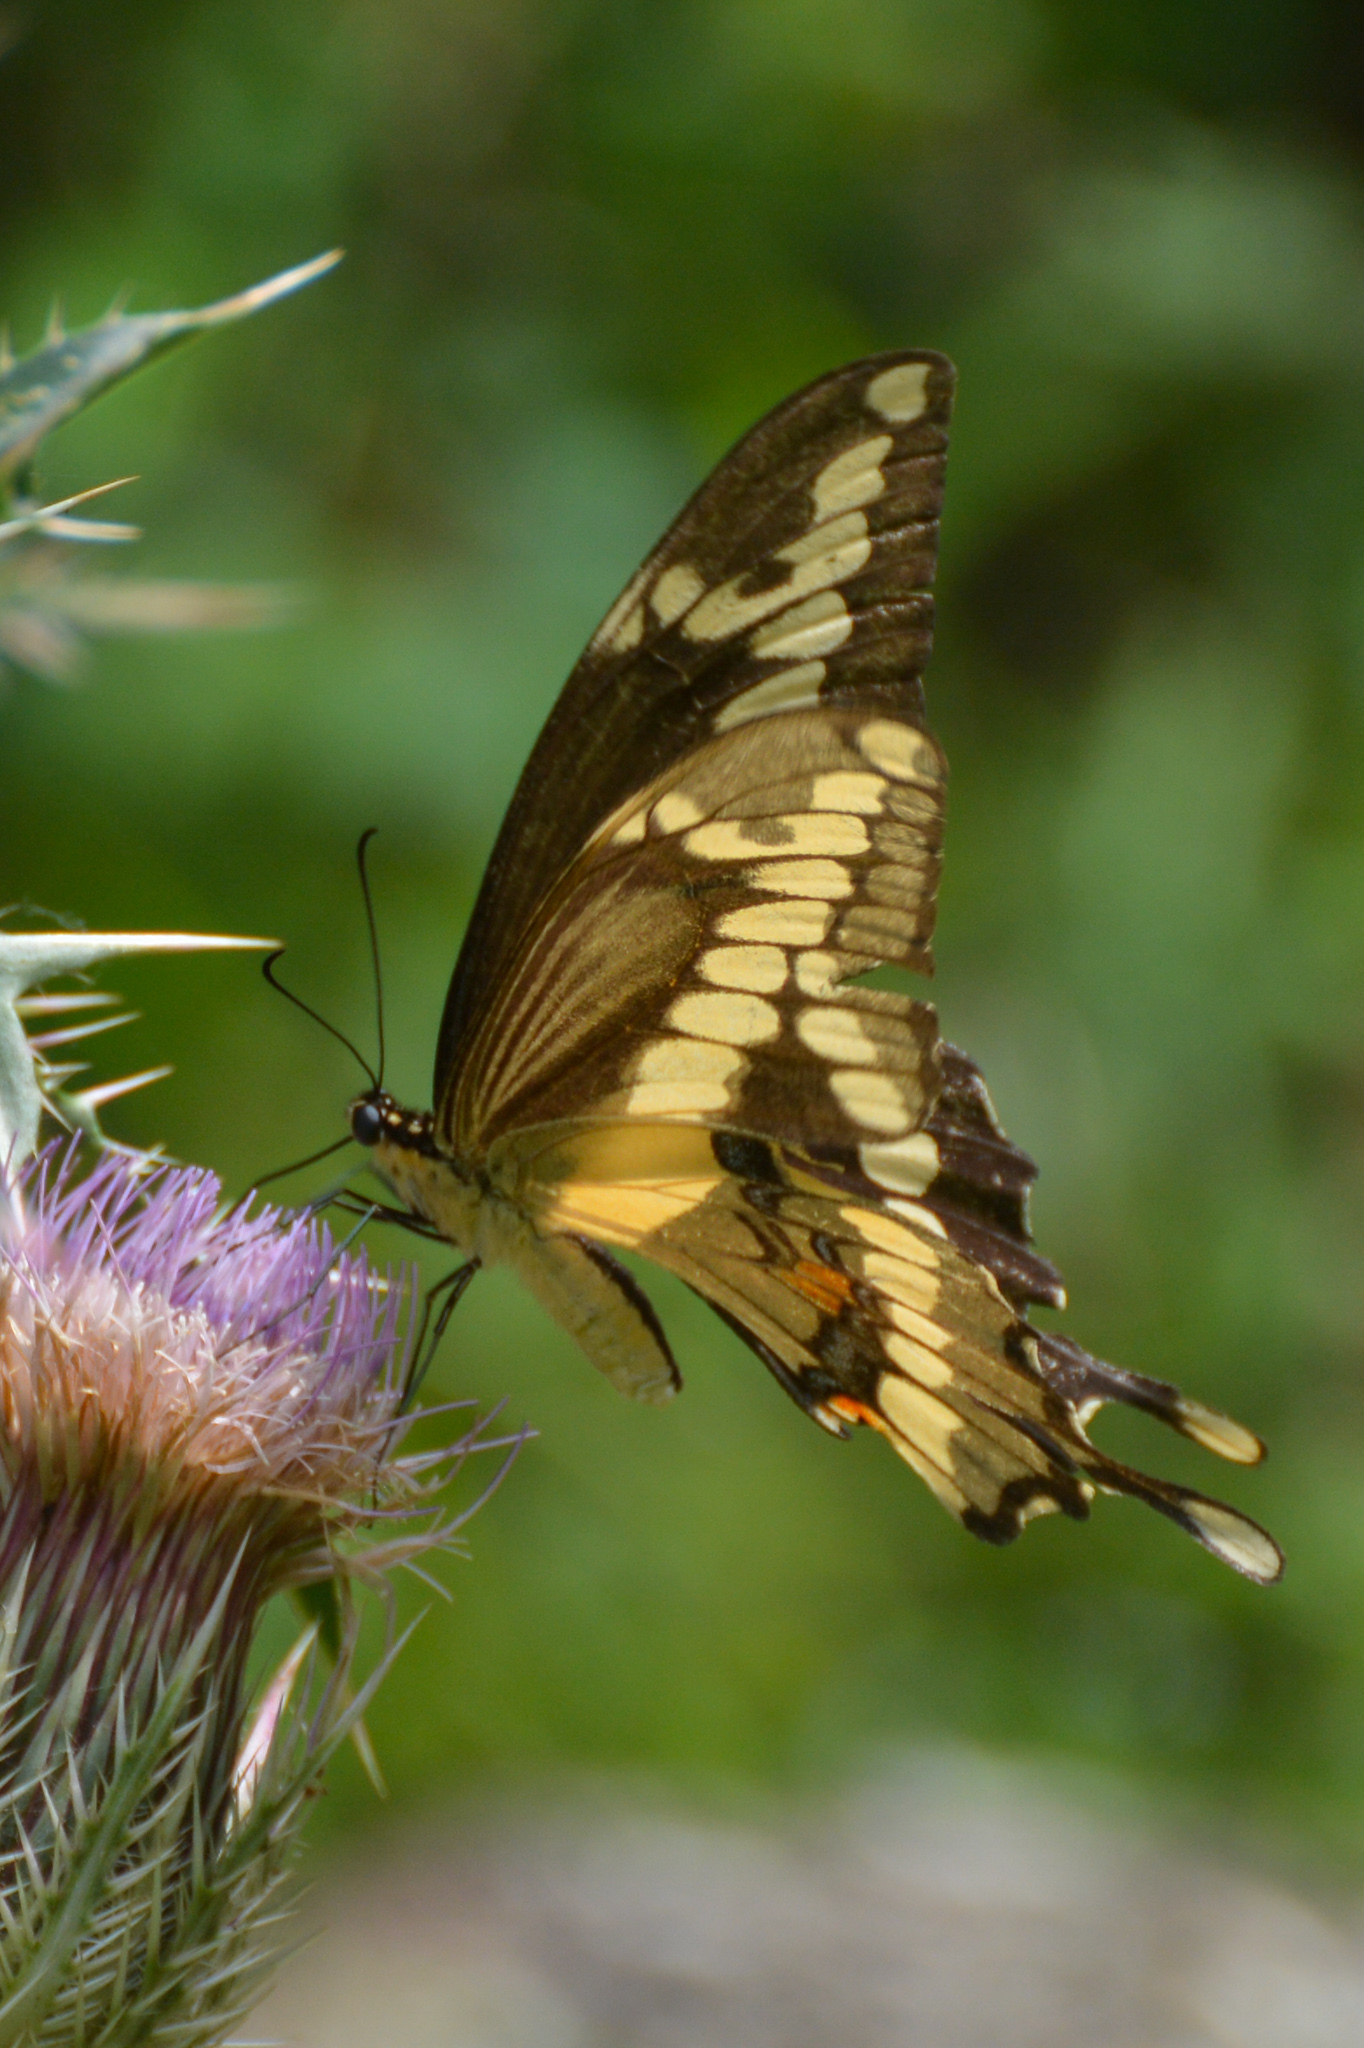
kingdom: Animalia
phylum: Arthropoda
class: Insecta
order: Lepidoptera
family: Papilionidae
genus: Papilio
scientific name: Papilio cresphontes
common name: Giant swallowtail
